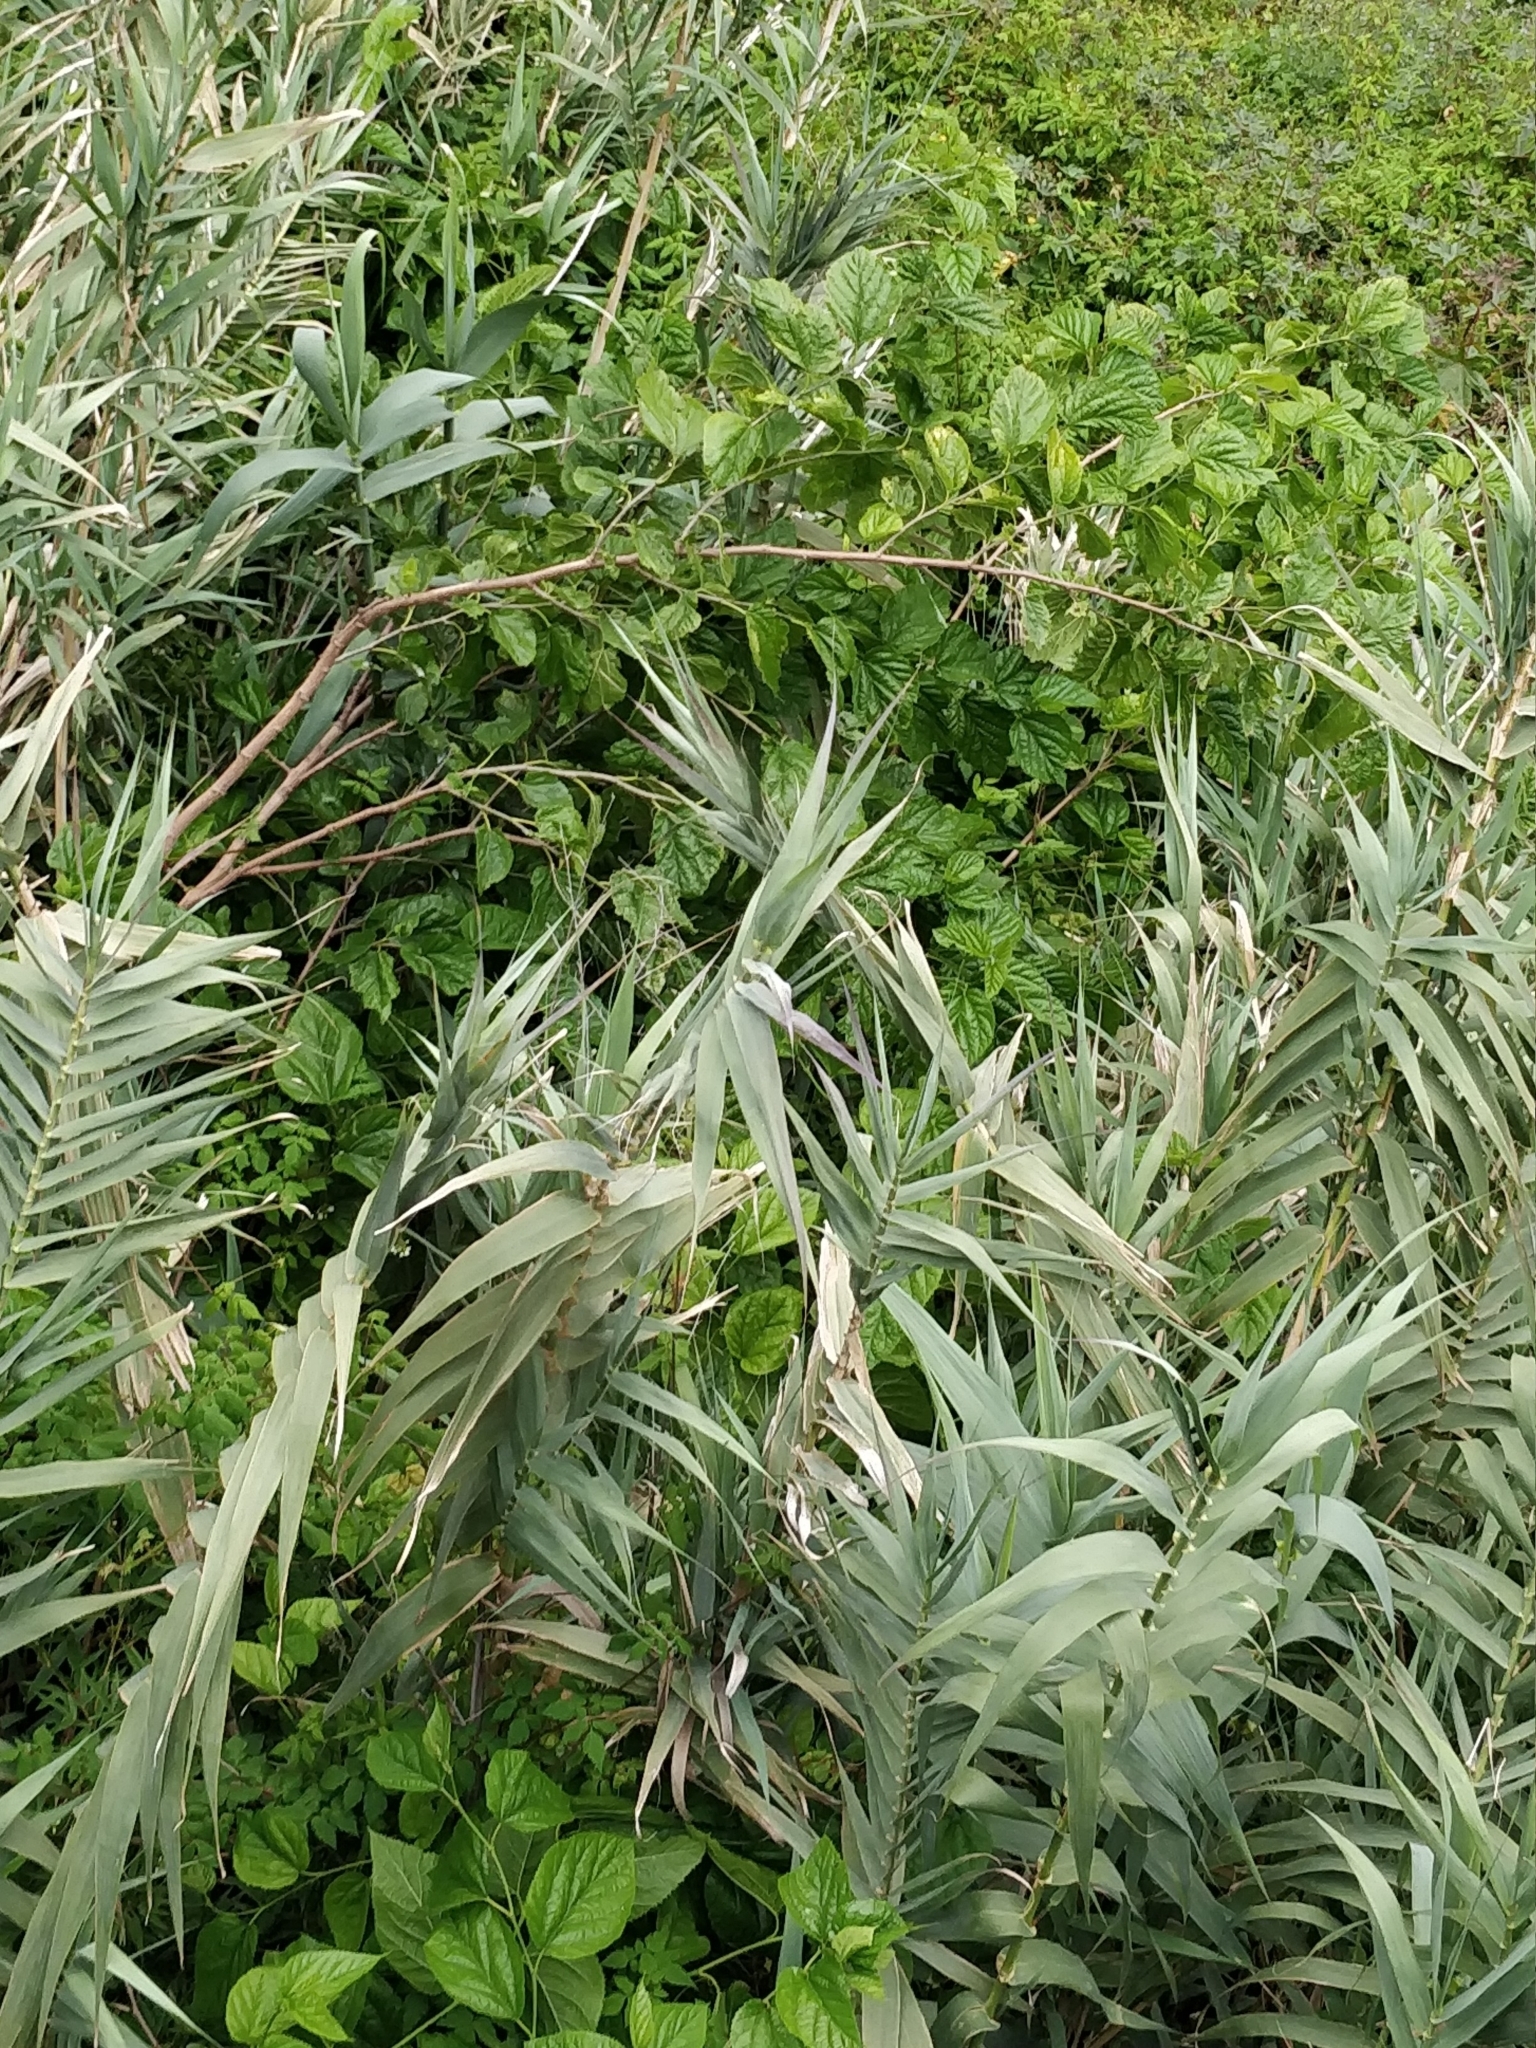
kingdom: Plantae
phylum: Tracheophyta
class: Magnoliopsida
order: Rosales
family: Moraceae
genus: Morus
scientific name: Morus alba
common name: White mulberry
